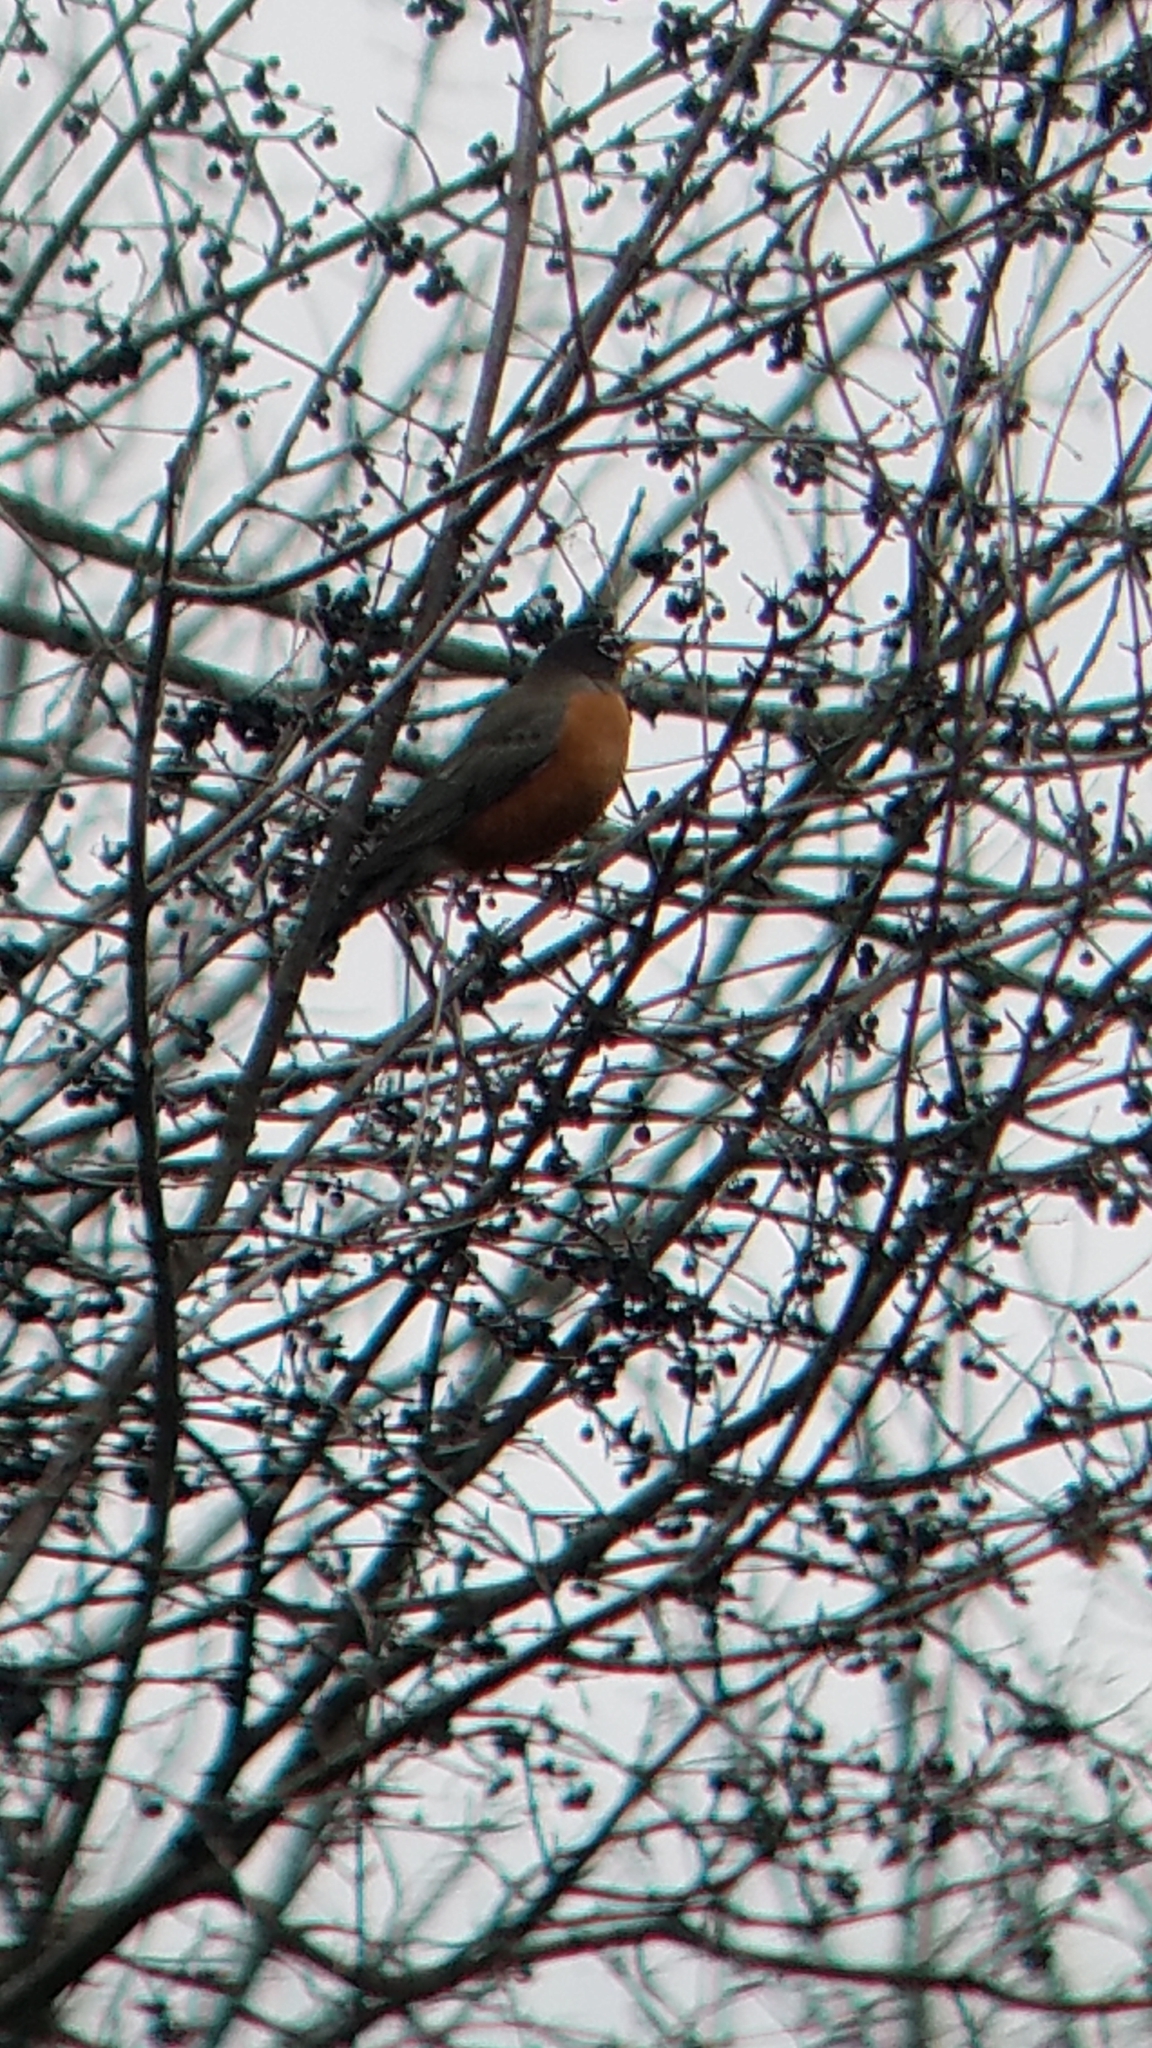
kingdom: Animalia
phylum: Chordata
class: Aves
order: Passeriformes
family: Turdidae
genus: Turdus
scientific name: Turdus migratorius
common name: American robin
